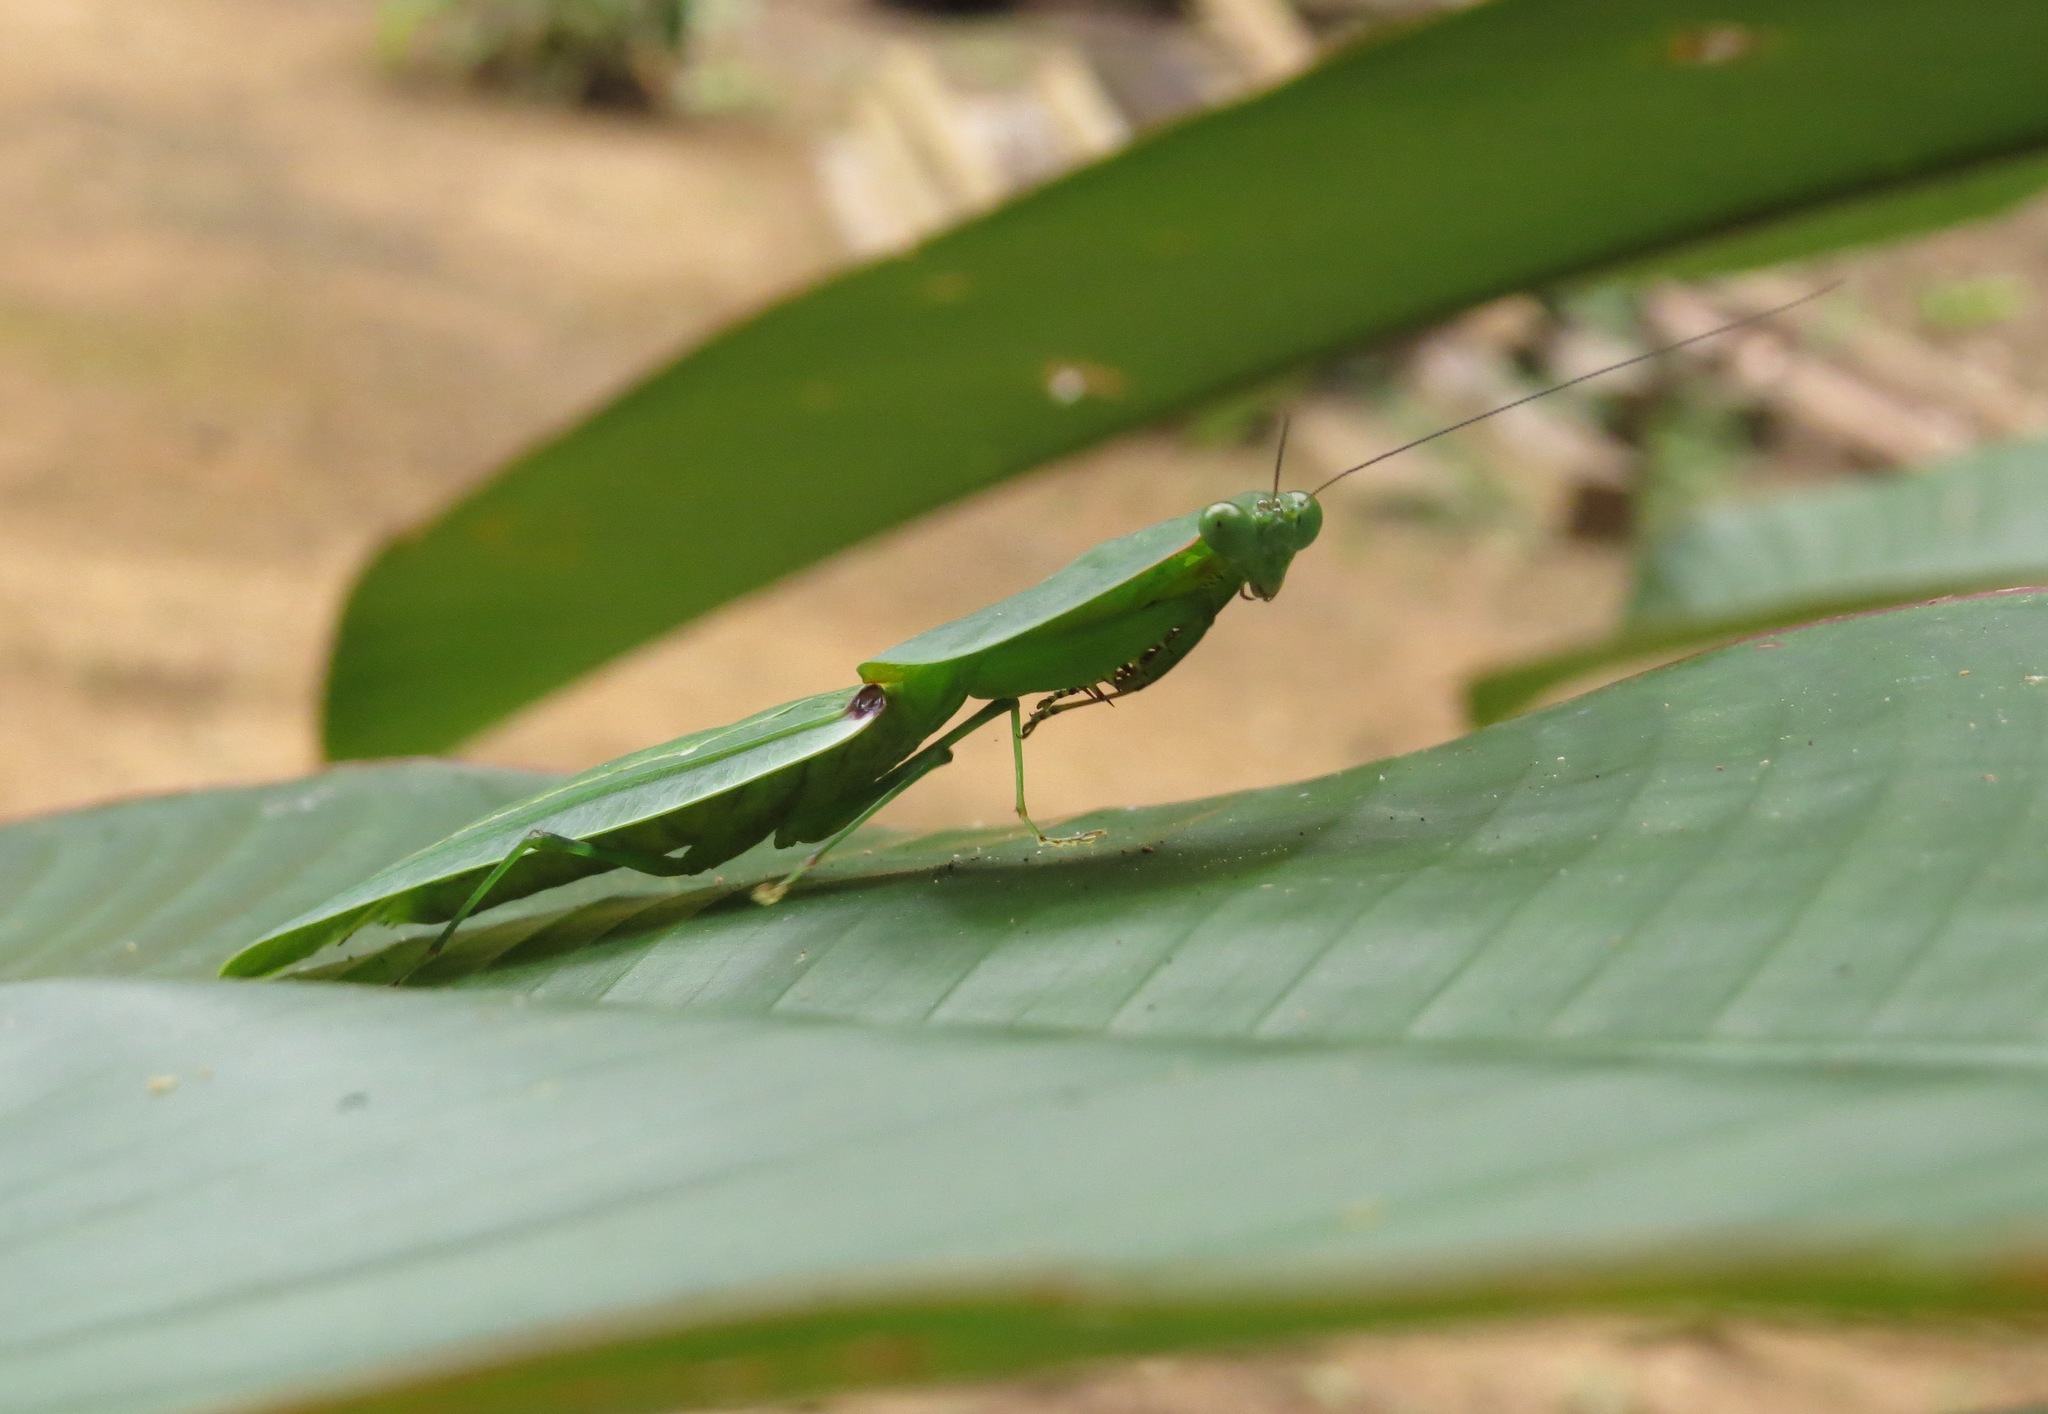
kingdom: Animalia
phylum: Arthropoda
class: Insecta
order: Mantodea
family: Mantidae
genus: Choeradodis
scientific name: Choeradodis rhomboidea
